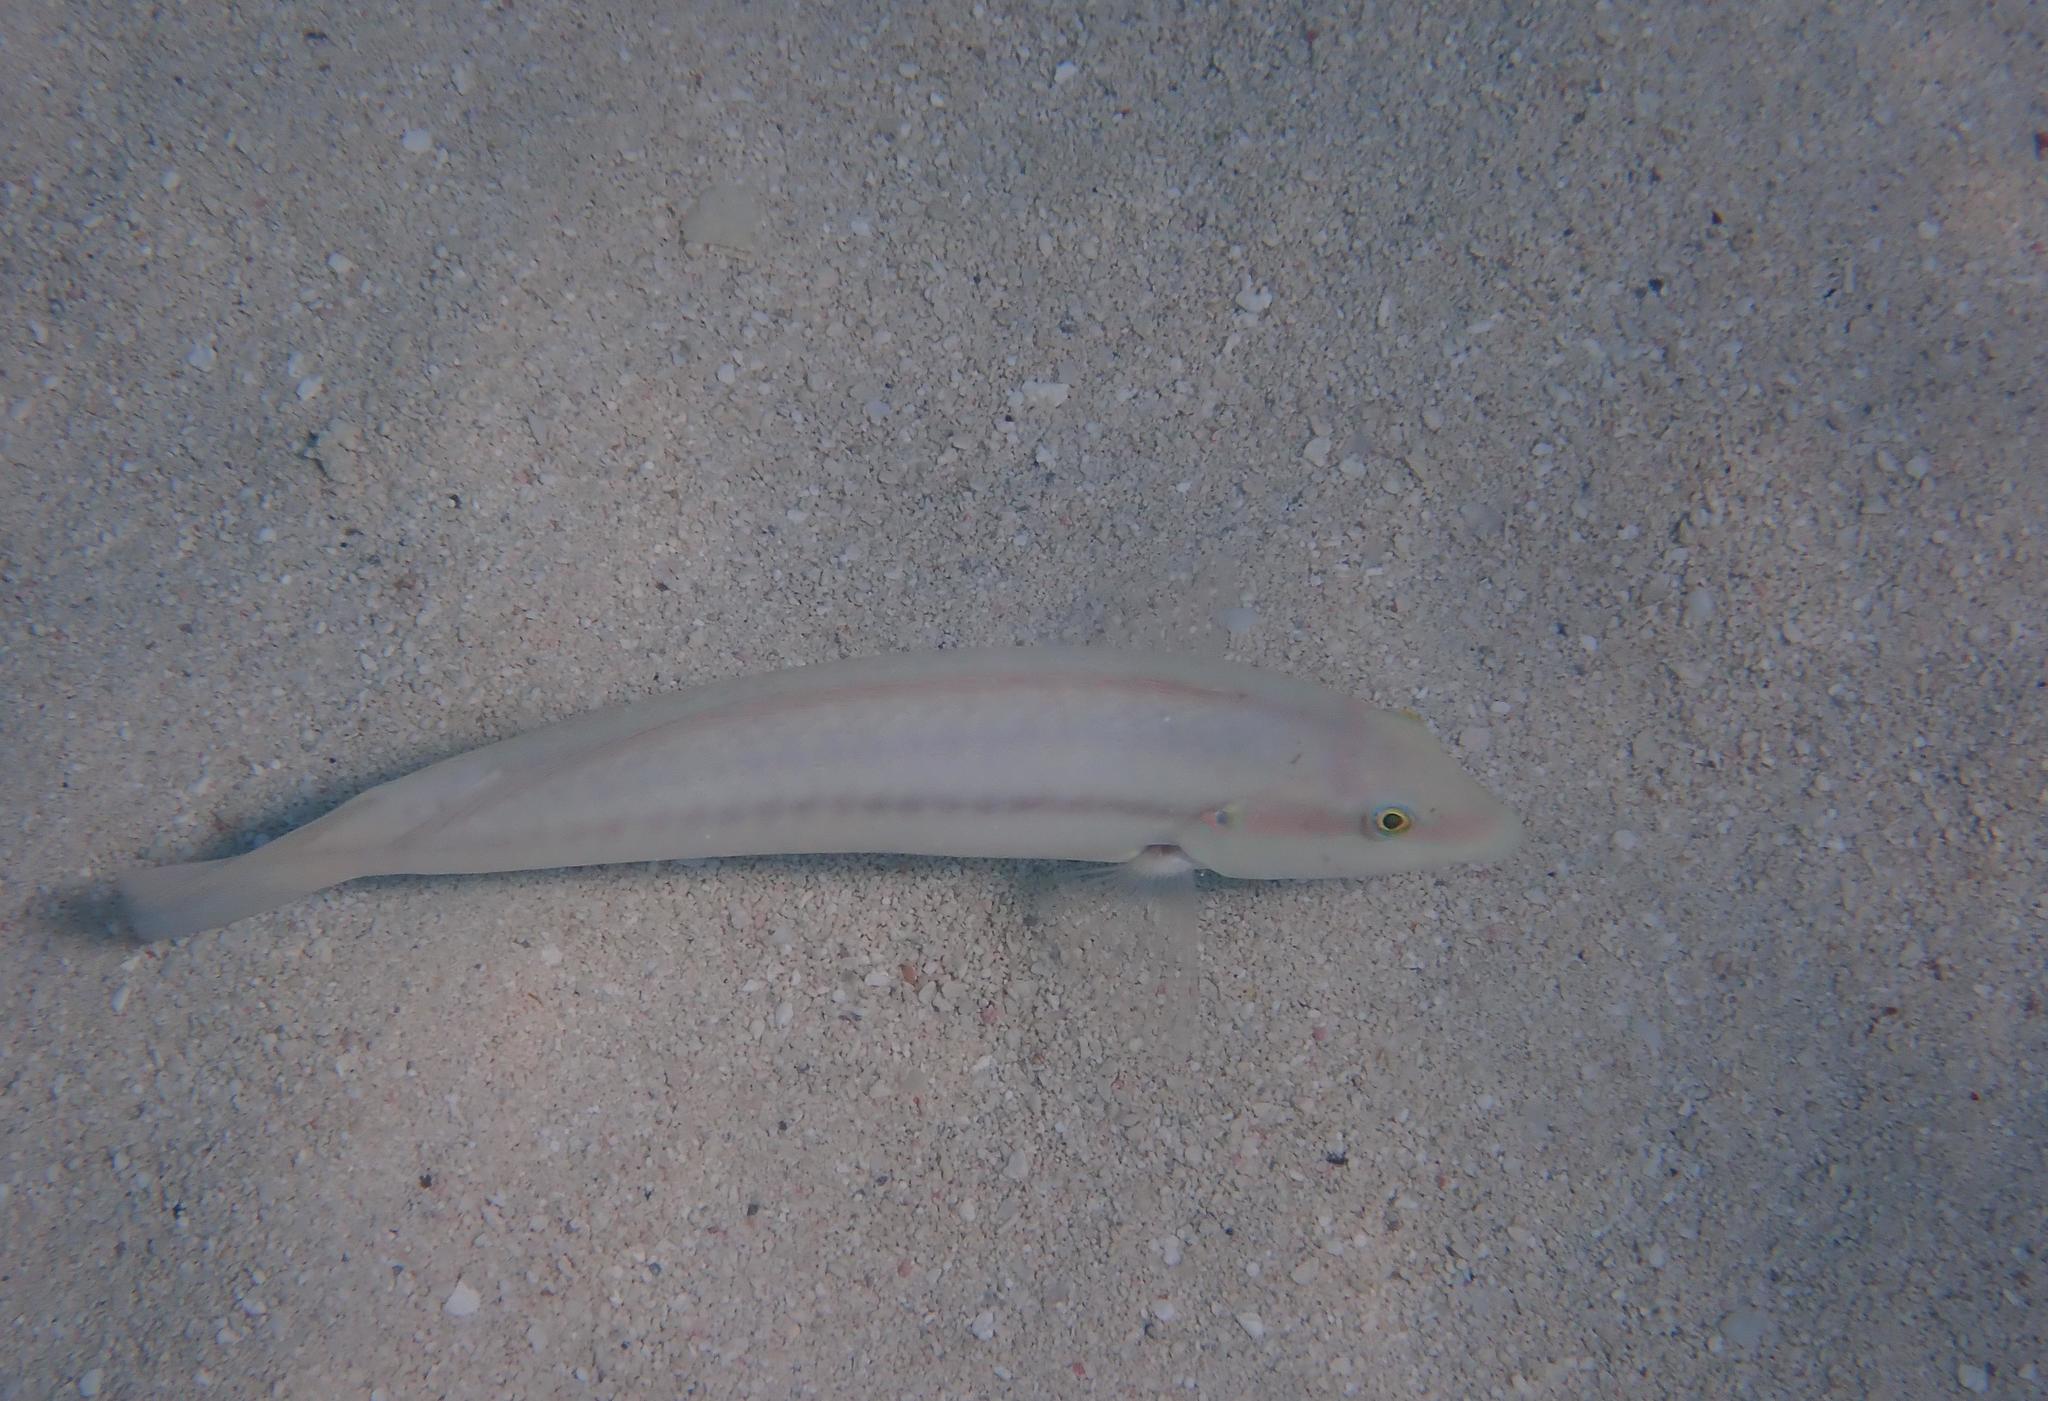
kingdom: Animalia
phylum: Chordata
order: Perciformes
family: Labridae
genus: Halichoeres
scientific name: Halichoeres bivittatus
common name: Slippery dick
